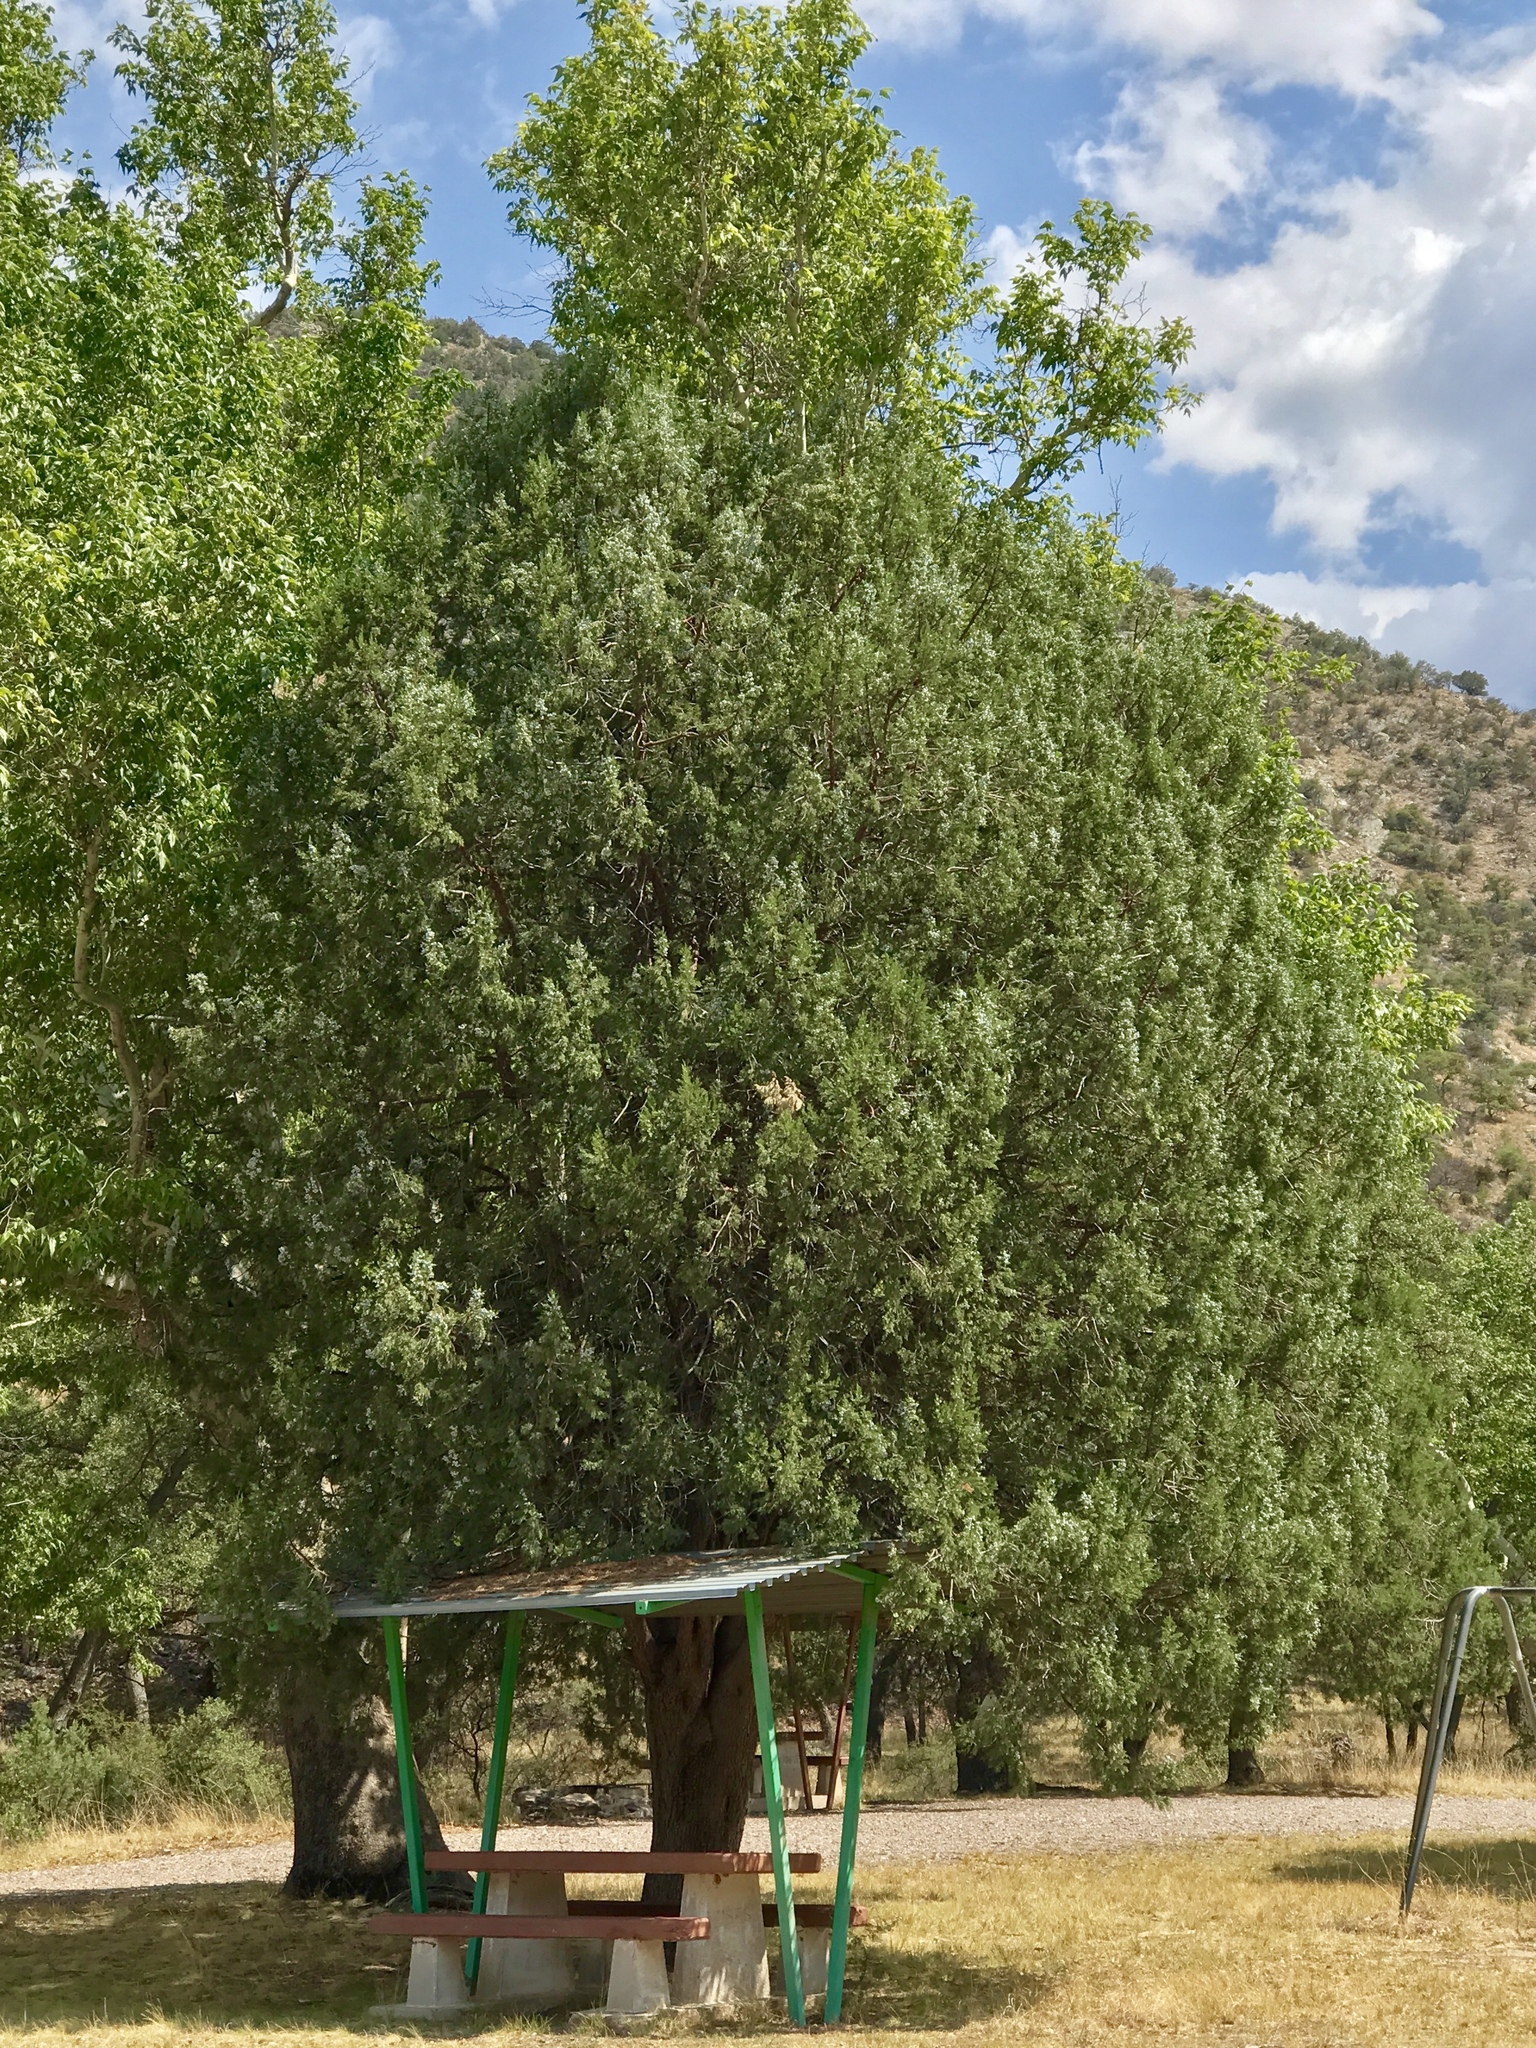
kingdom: Plantae
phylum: Tracheophyta
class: Pinopsida
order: Pinales
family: Cupressaceae
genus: Juniperus
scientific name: Juniperus deppeana
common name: Alligator juniper
